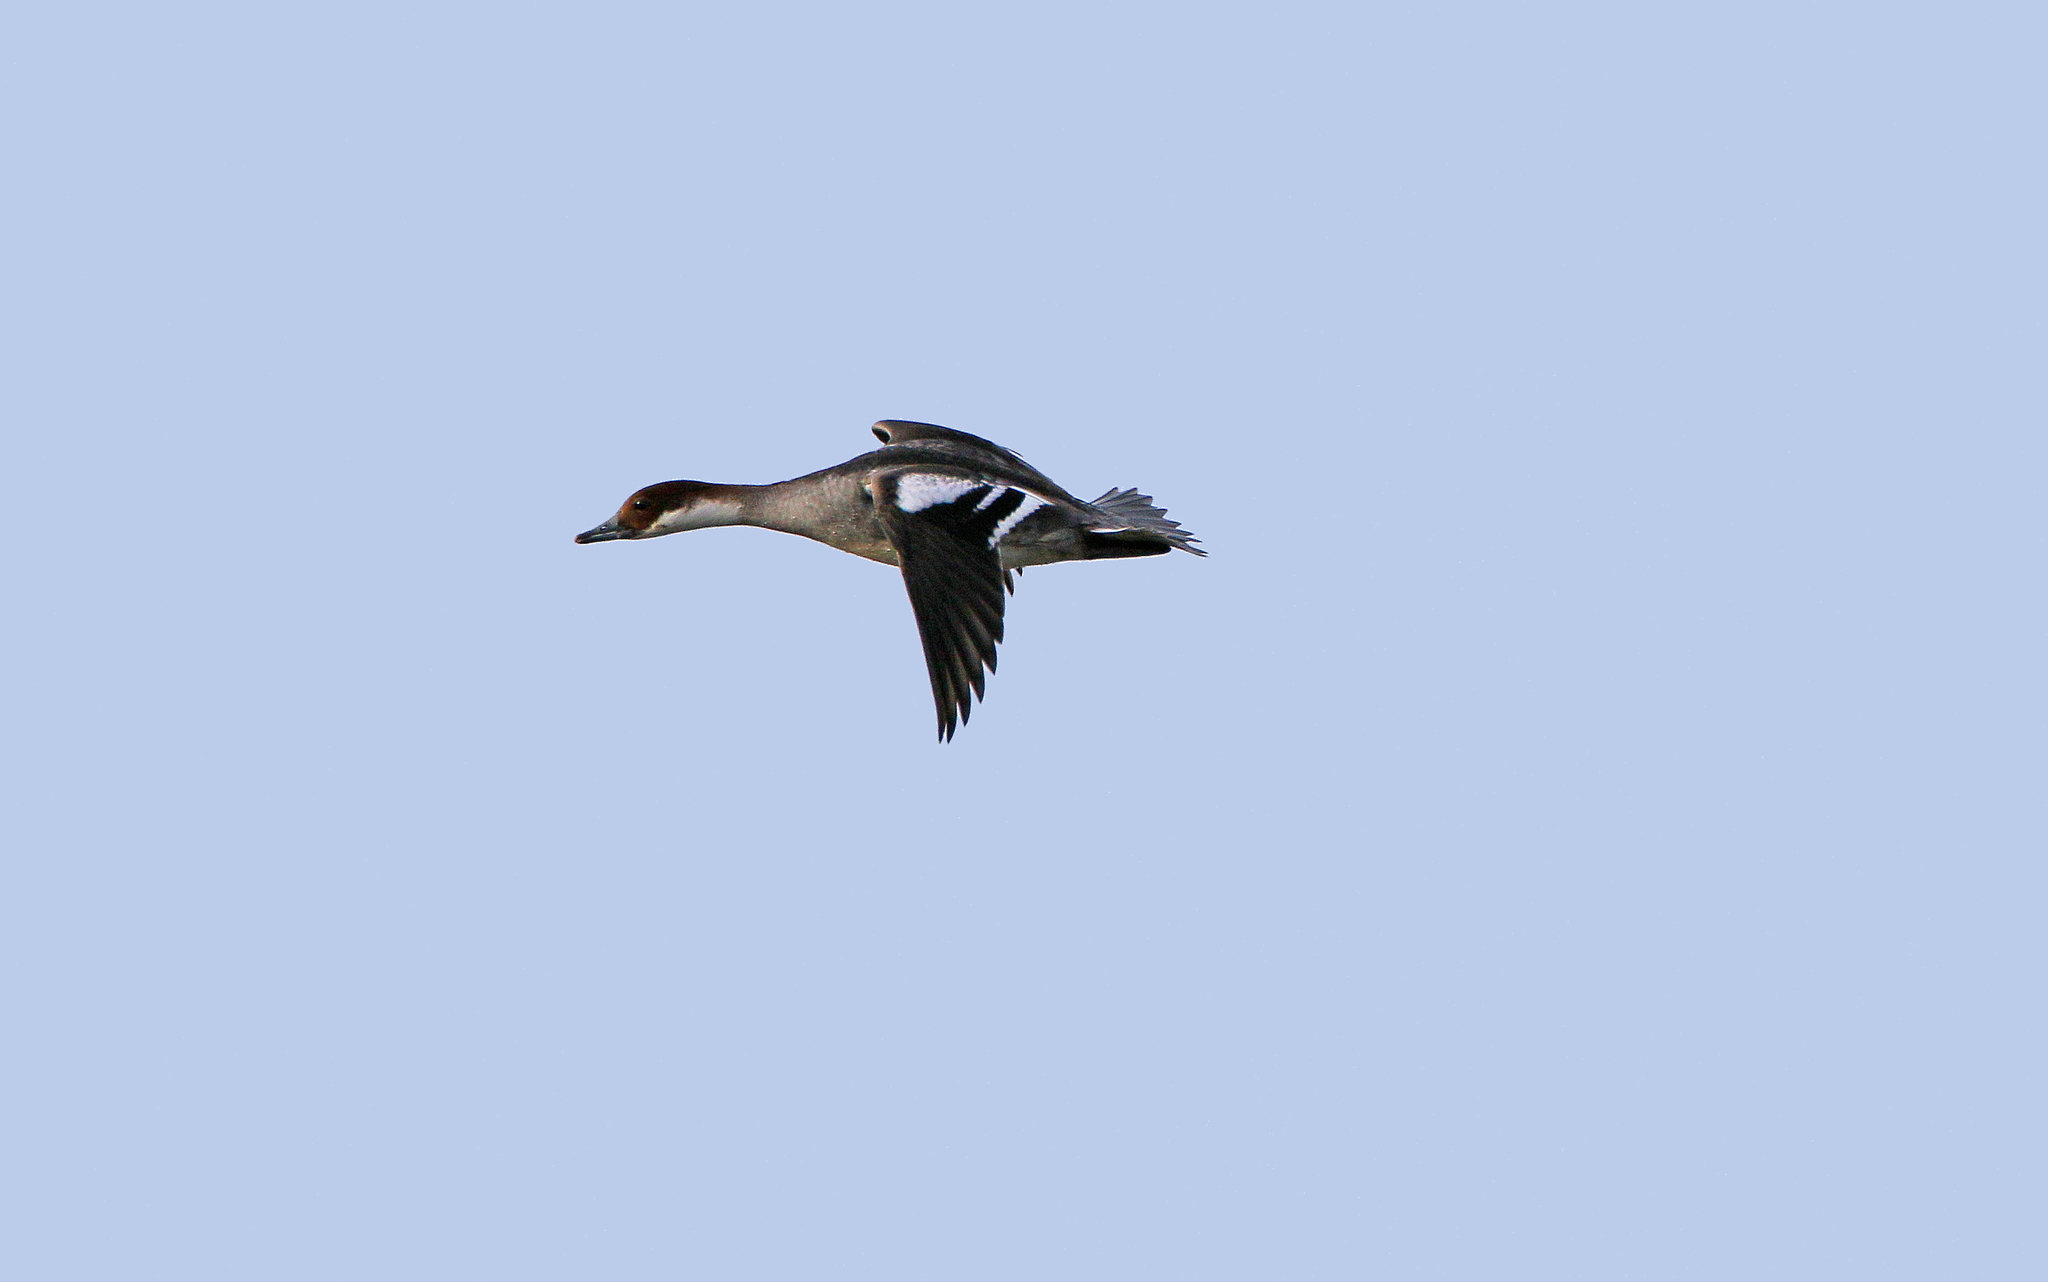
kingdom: Animalia
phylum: Chordata
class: Aves
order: Anseriformes
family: Anatidae
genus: Mergellus
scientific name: Mergellus albellus
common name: Smew
